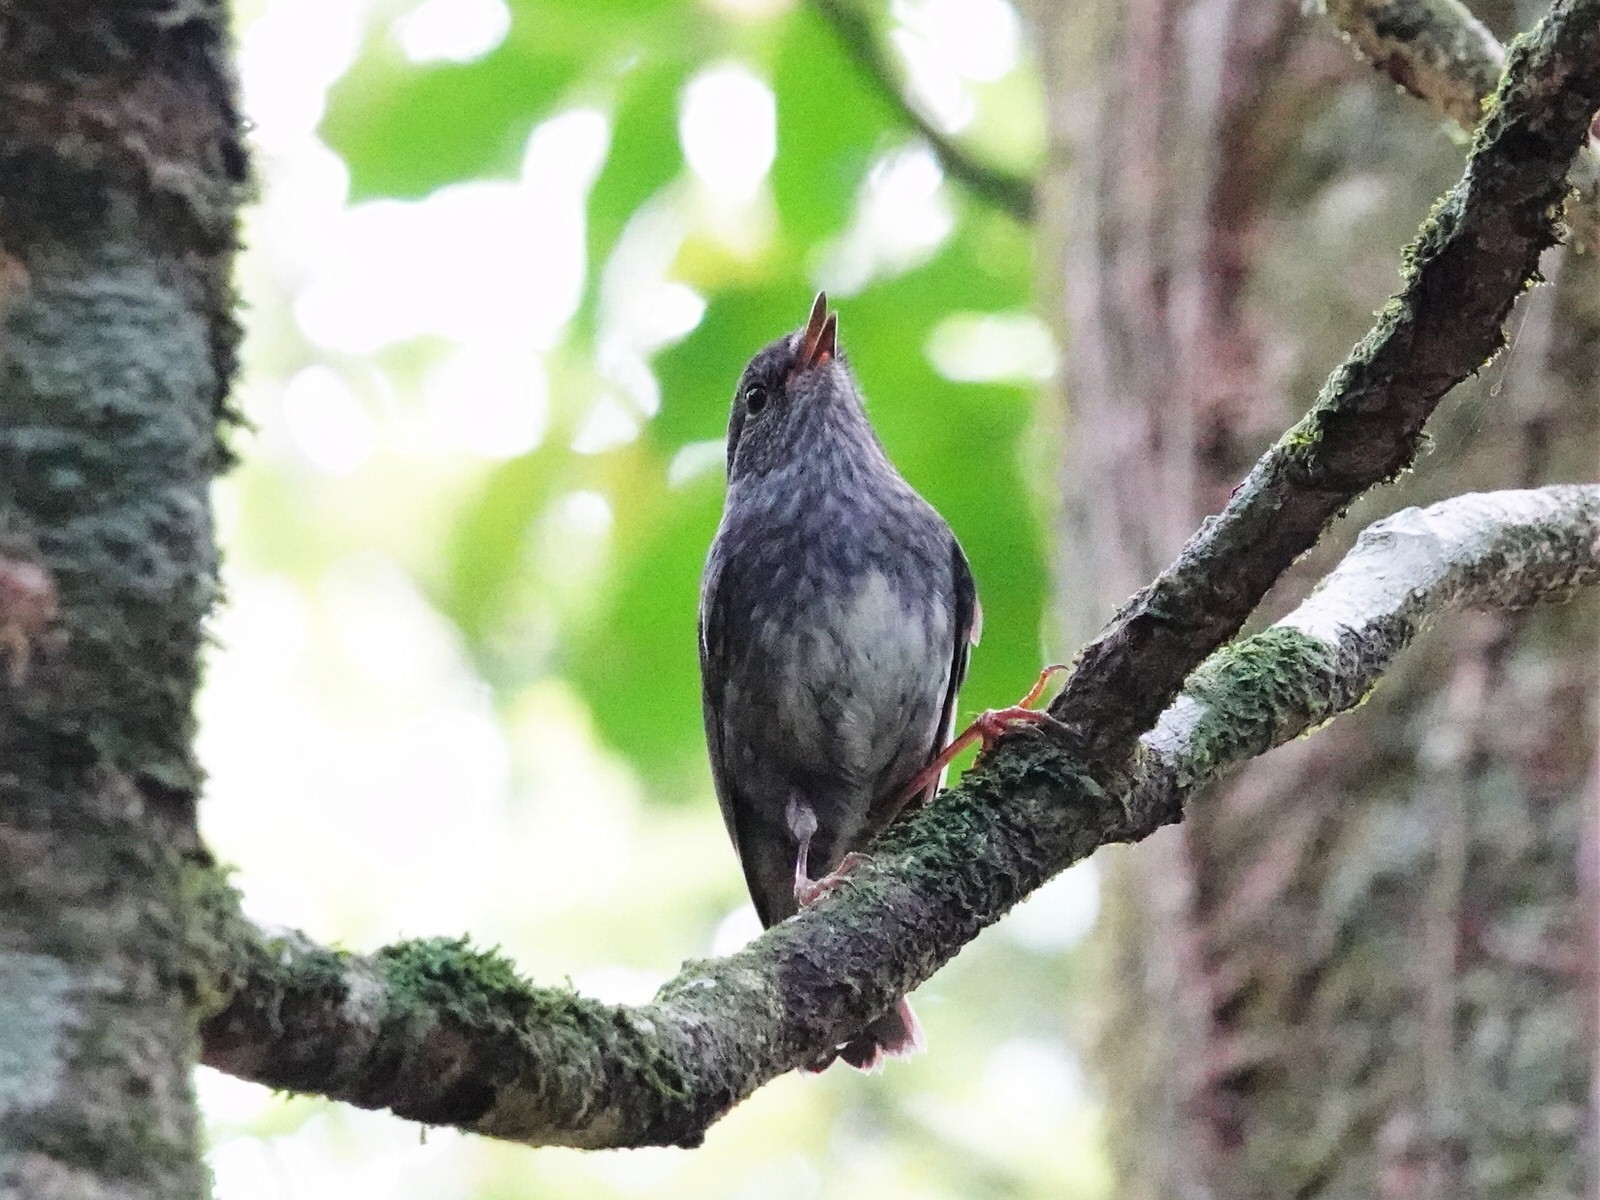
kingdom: Animalia
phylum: Chordata
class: Aves
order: Passeriformes
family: Petroicidae
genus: Petroica
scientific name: Petroica australis
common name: New zealand robin
